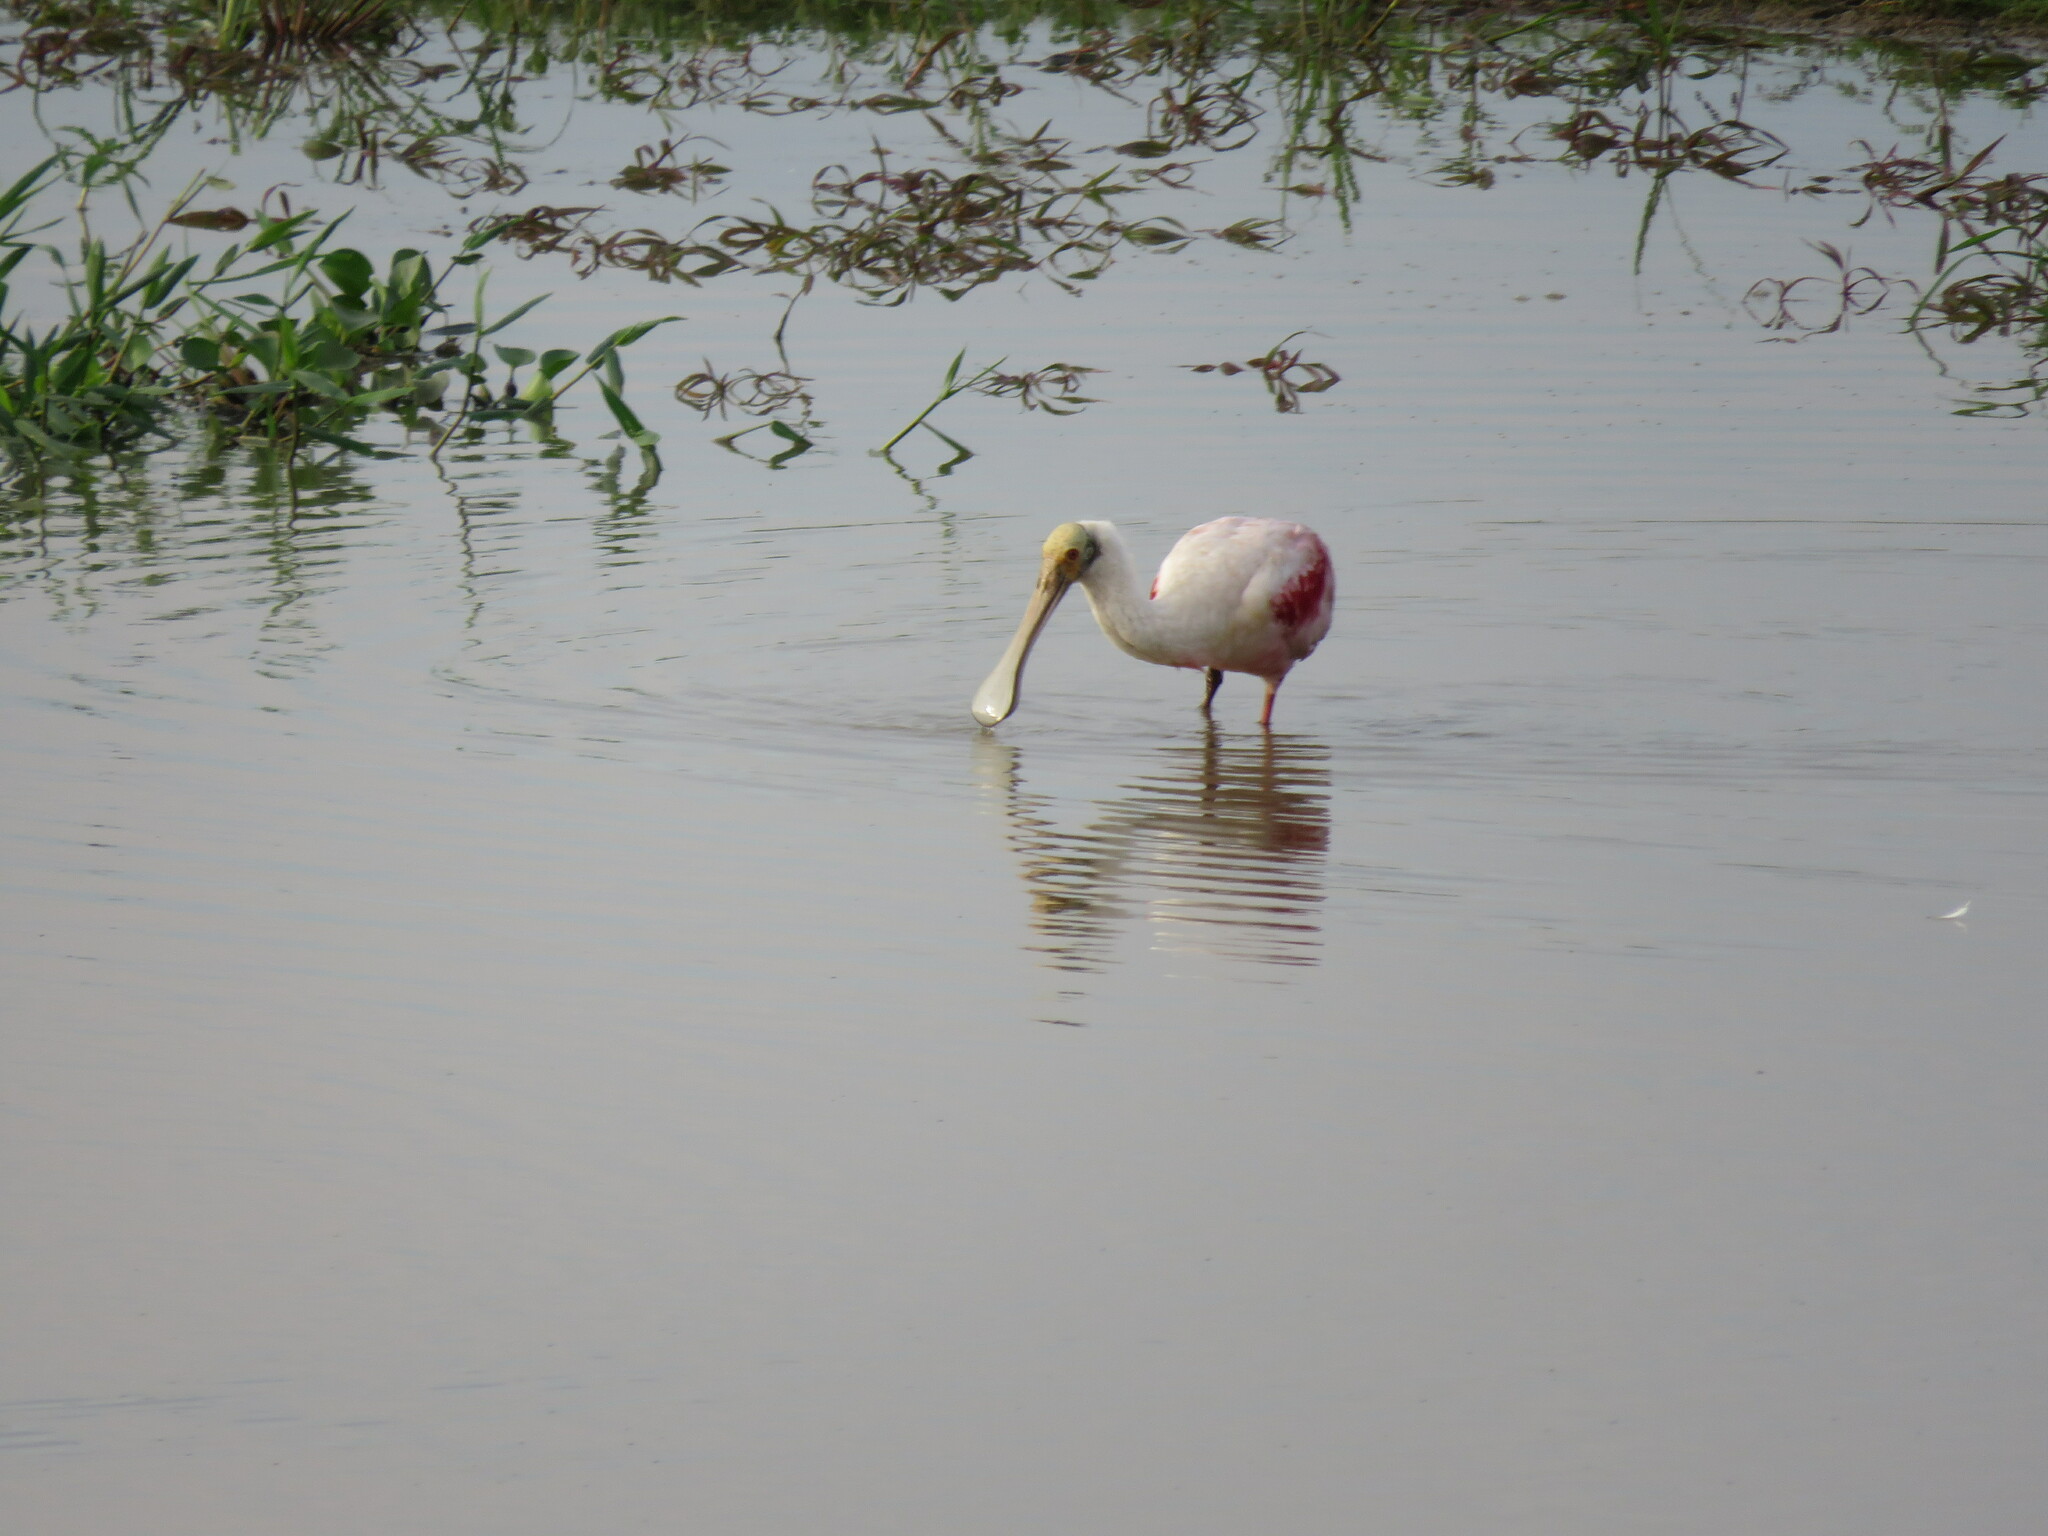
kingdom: Animalia
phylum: Chordata
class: Aves
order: Pelecaniformes
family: Threskiornithidae
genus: Platalea
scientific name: Platalea ajaja
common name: Roseate spoonbill
